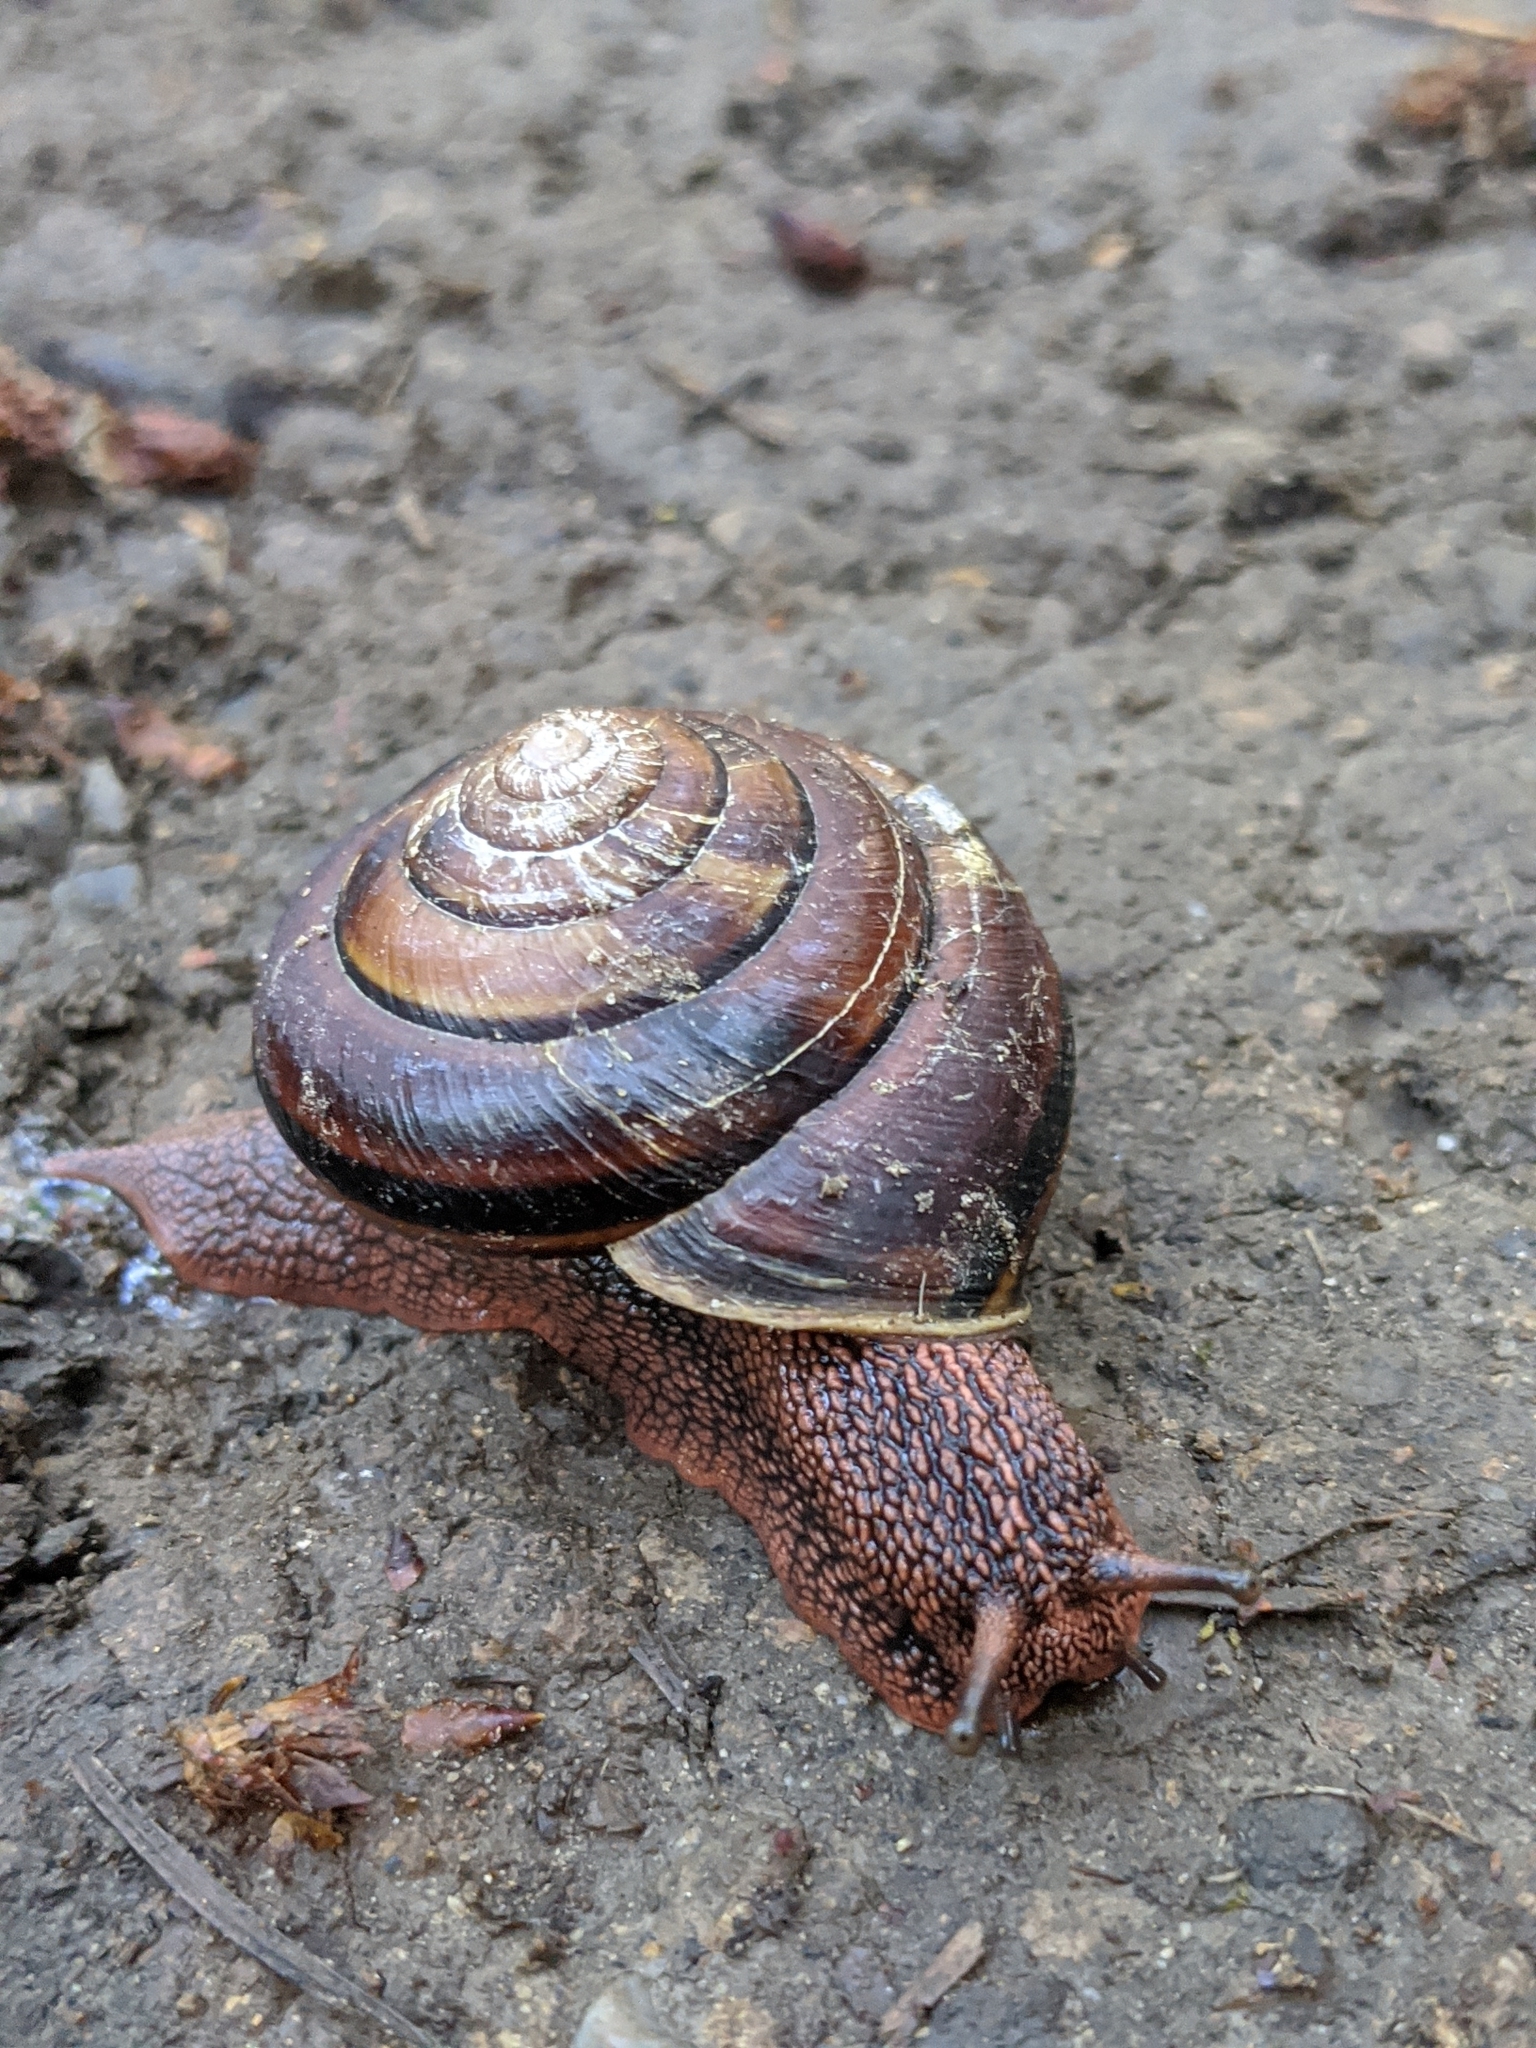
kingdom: Animalia
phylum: Mollusca
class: Gastropoda
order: Stylommatophora
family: Xanthonychidae
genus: Monadenia
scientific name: Monadenia fidelis
